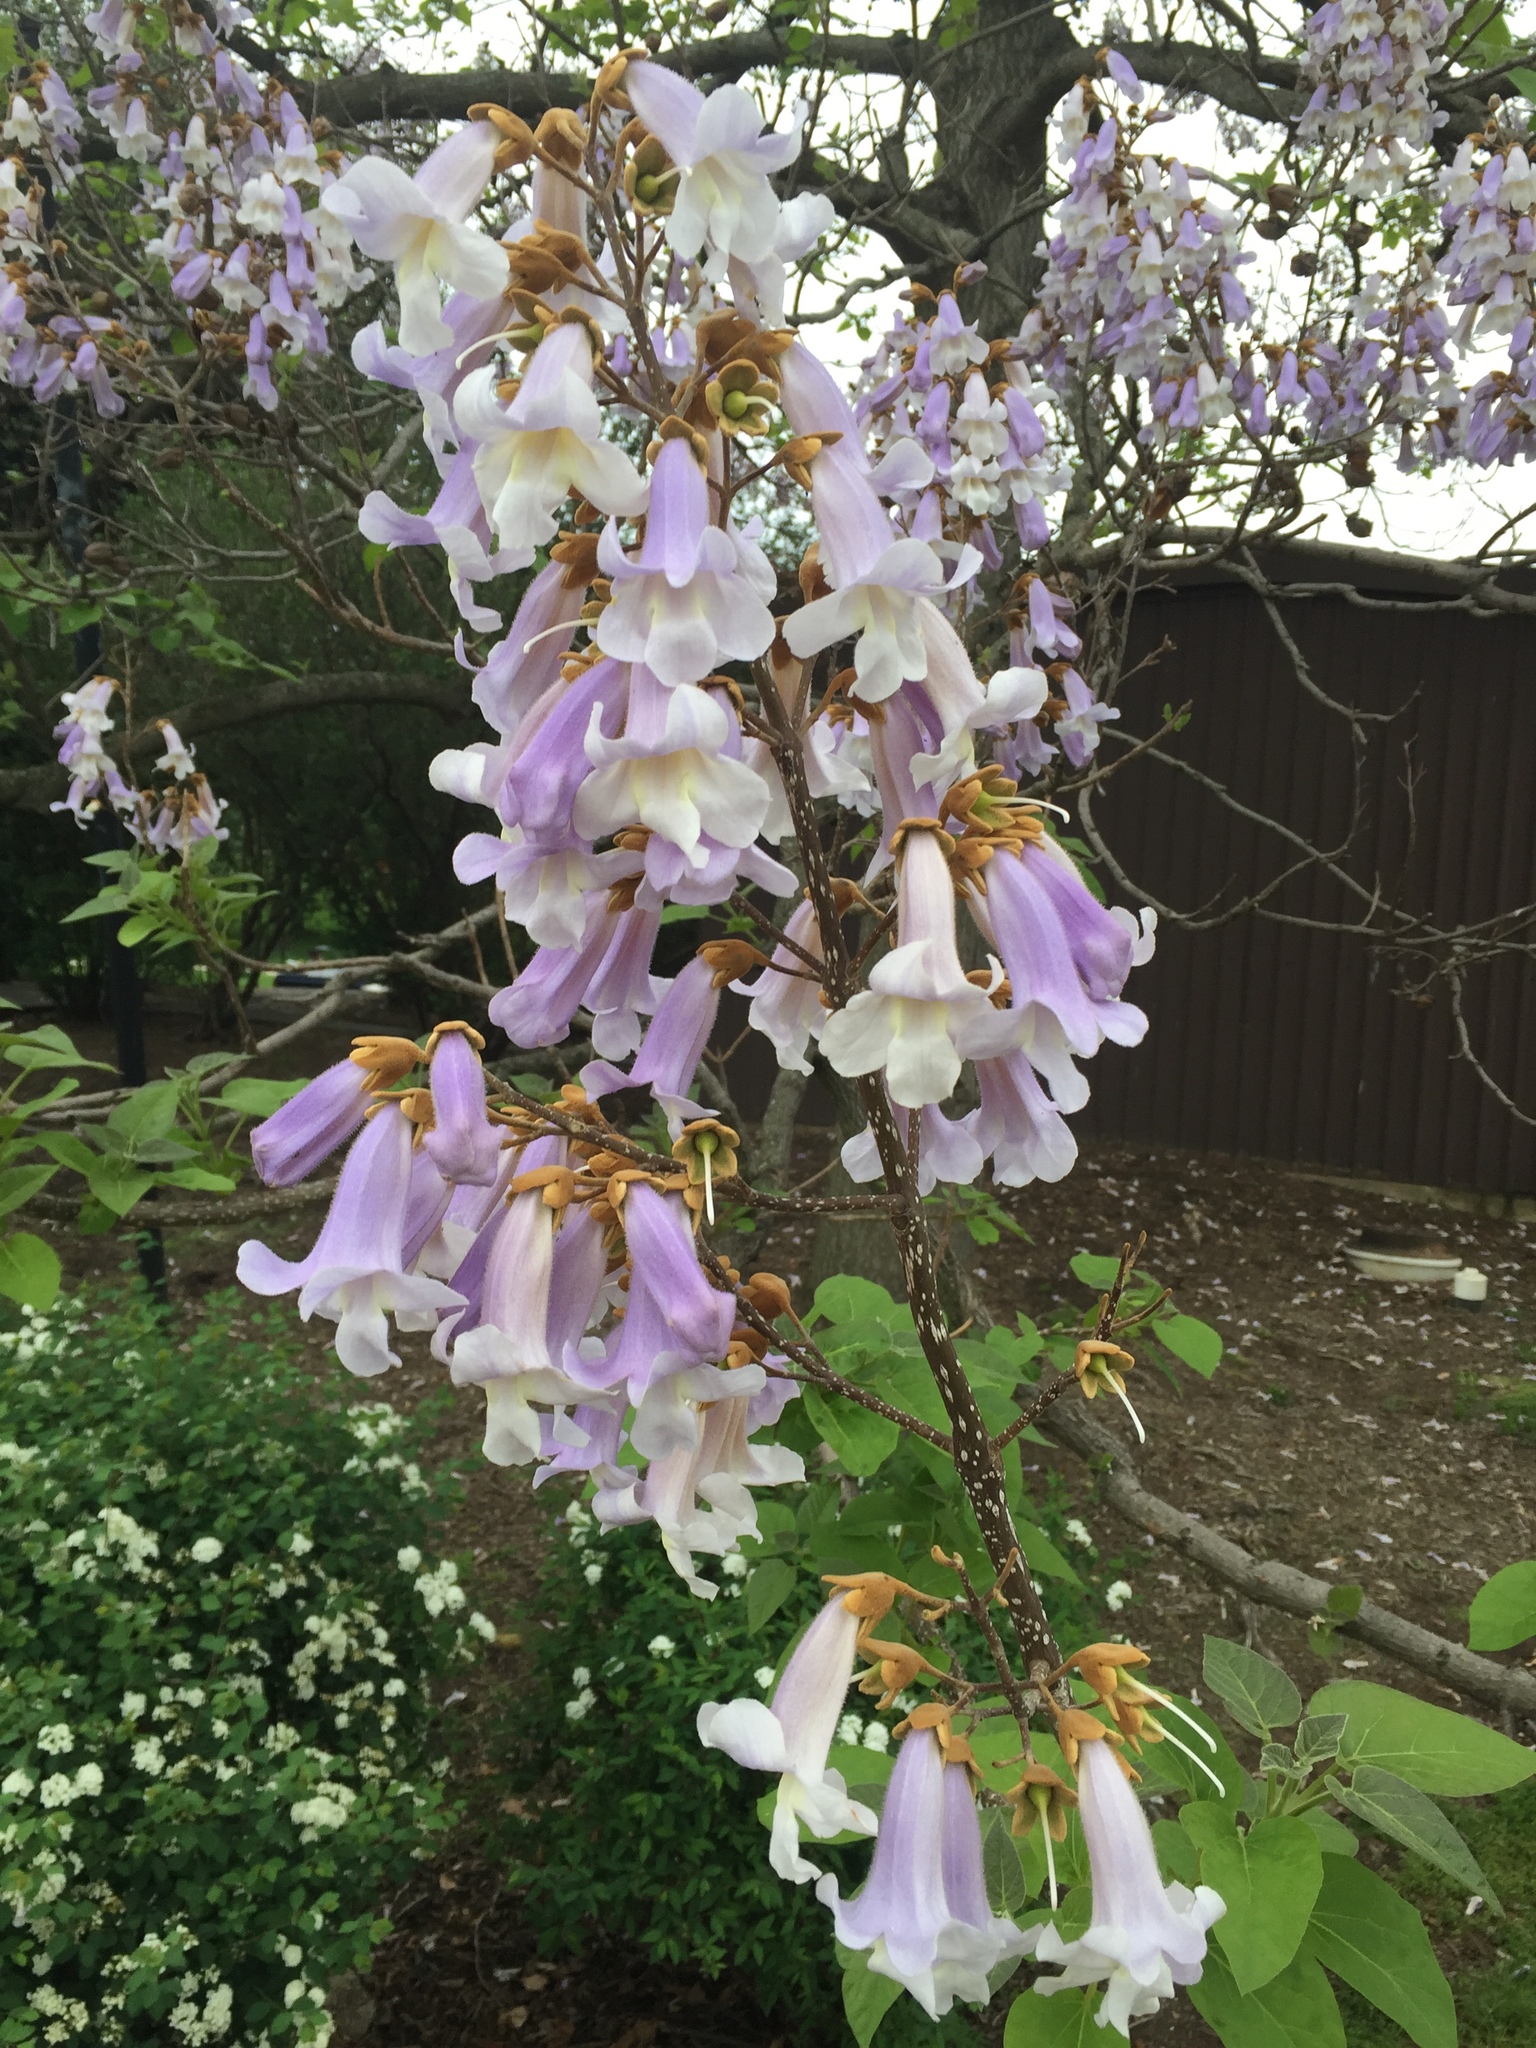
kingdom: Plantae
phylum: Tracheophyta
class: Magnoliopsida
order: Lamiales
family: Paulowniaceae
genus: Paulownia
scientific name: Paulownia tomentosa
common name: Foxglove-tree
